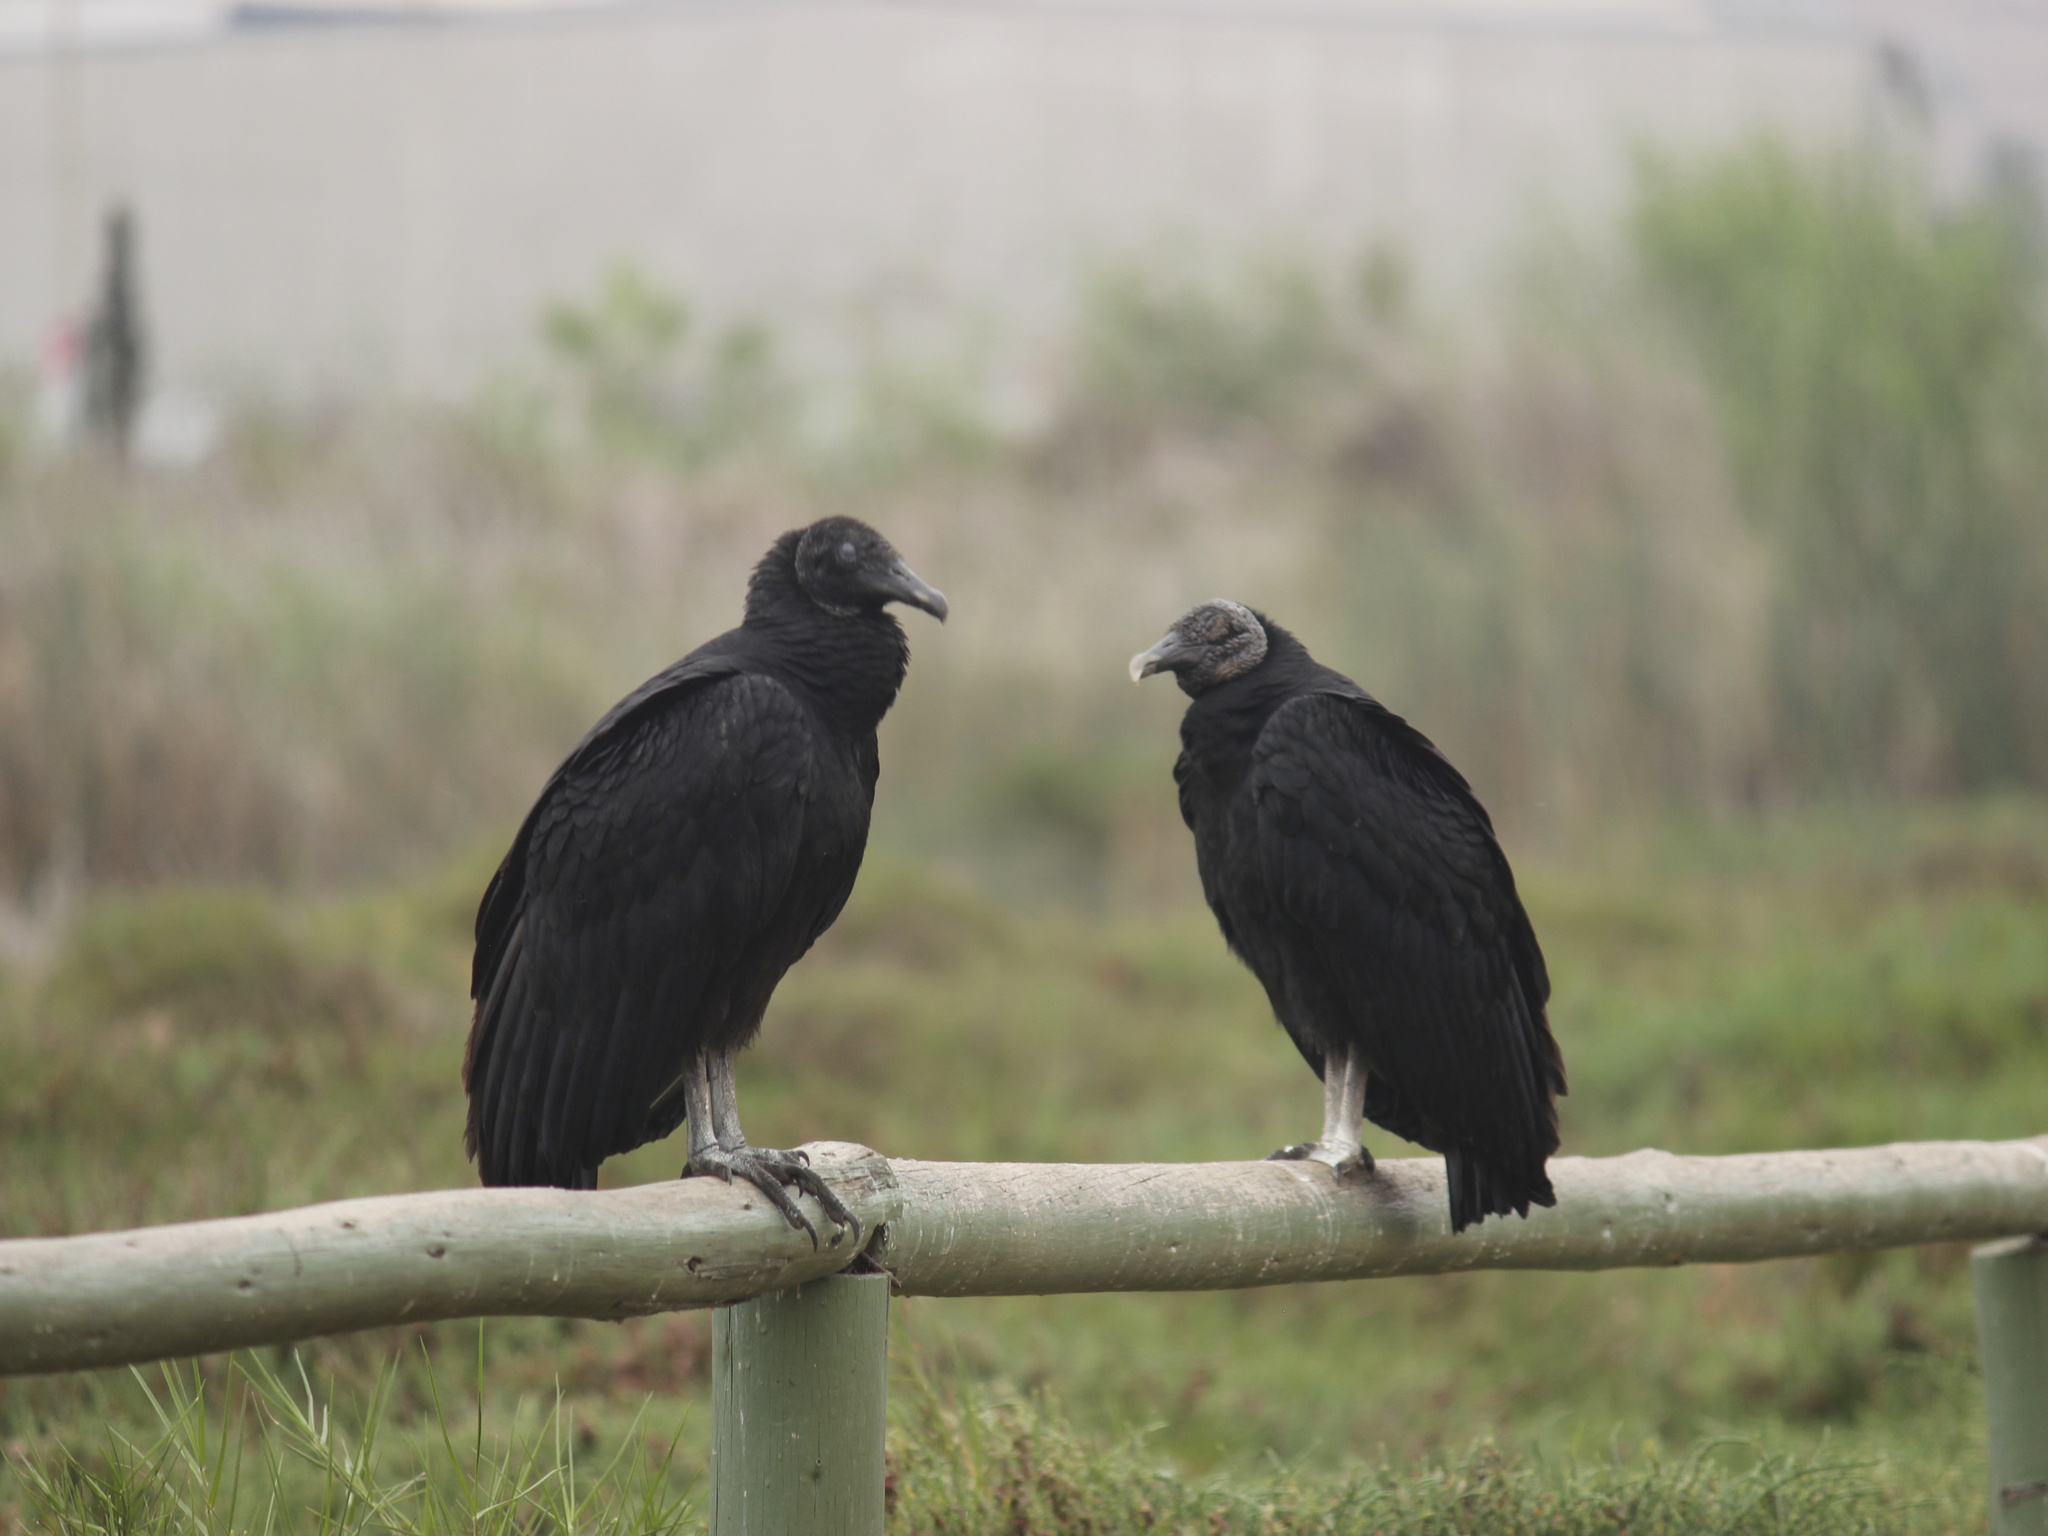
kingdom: Animalia
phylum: Chordata
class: Aves
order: Accipitriformes
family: Cathartidae
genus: Coragyps
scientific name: Coragyps atratus
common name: Black vulture
